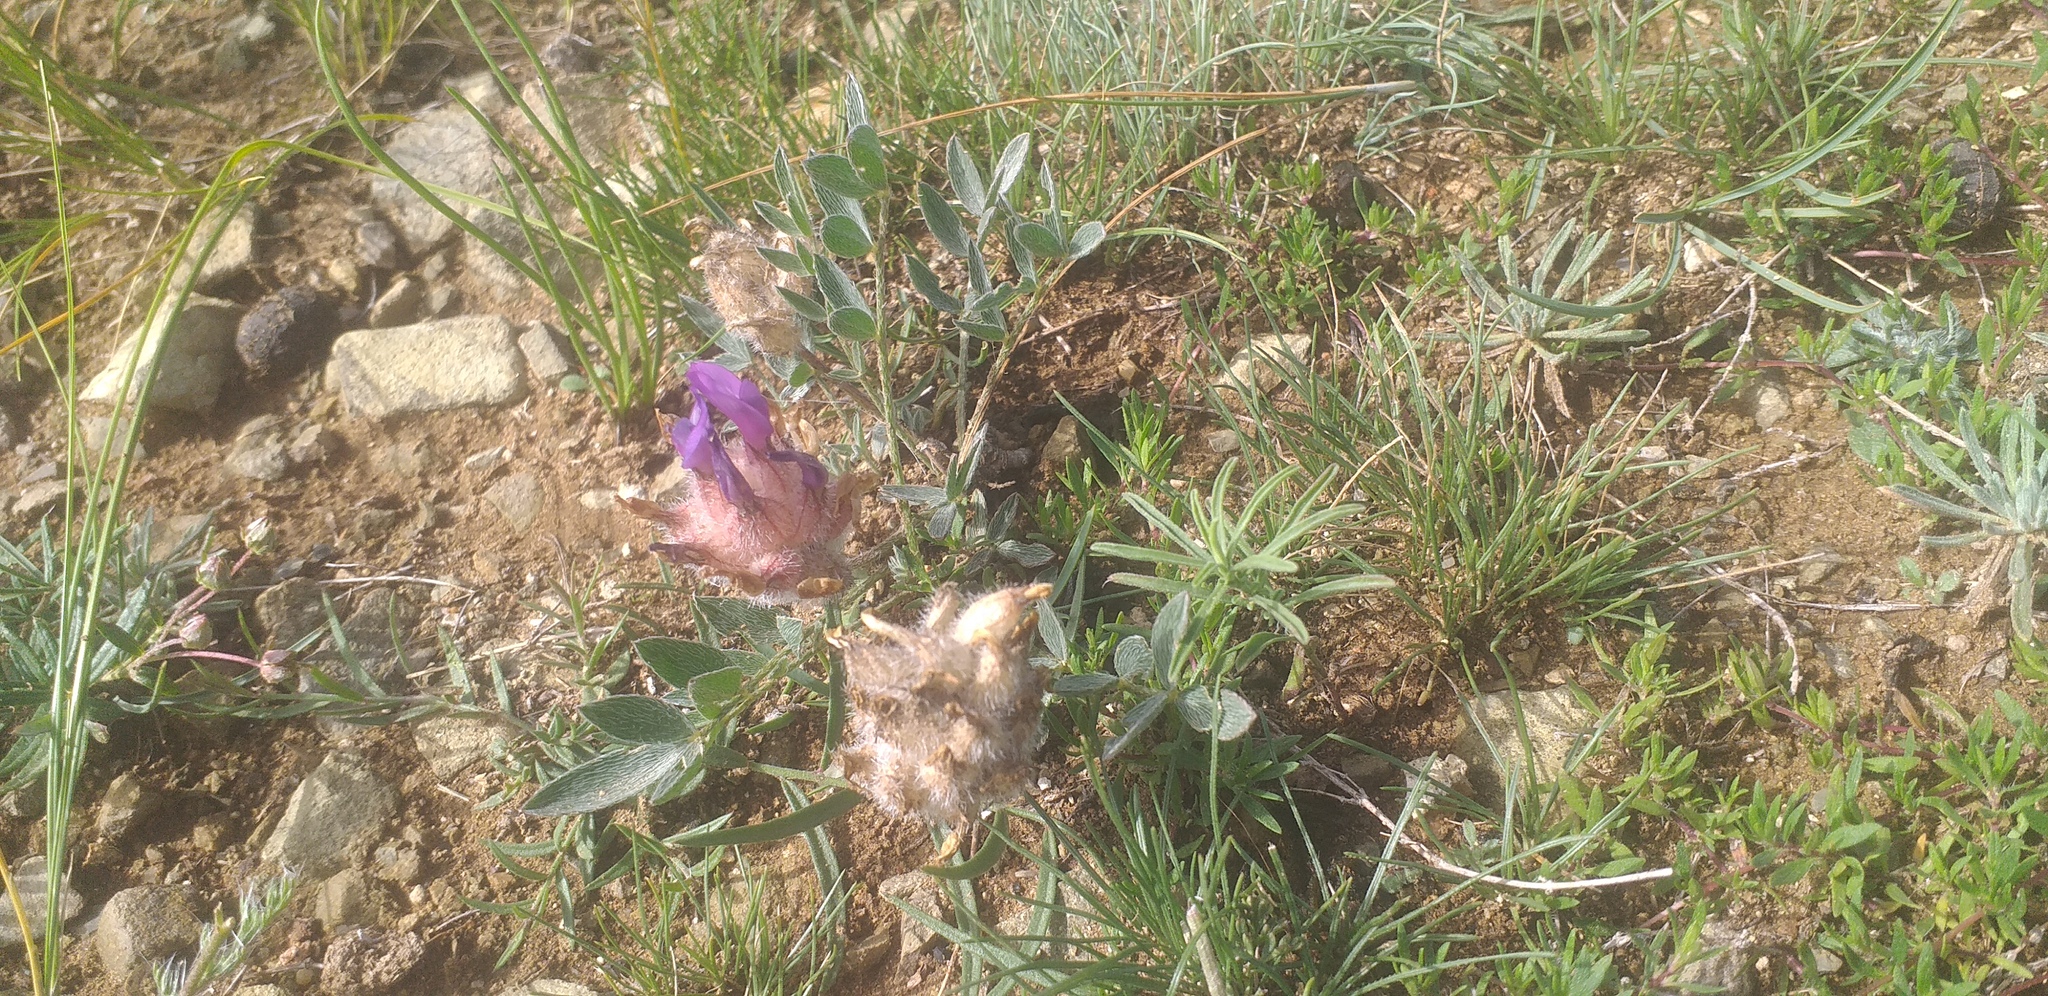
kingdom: Plantae
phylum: Tracheophyta
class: Magnoliopsida
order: Fabales
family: Fabaceae
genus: Astragalus
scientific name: Astragalus laguroides
